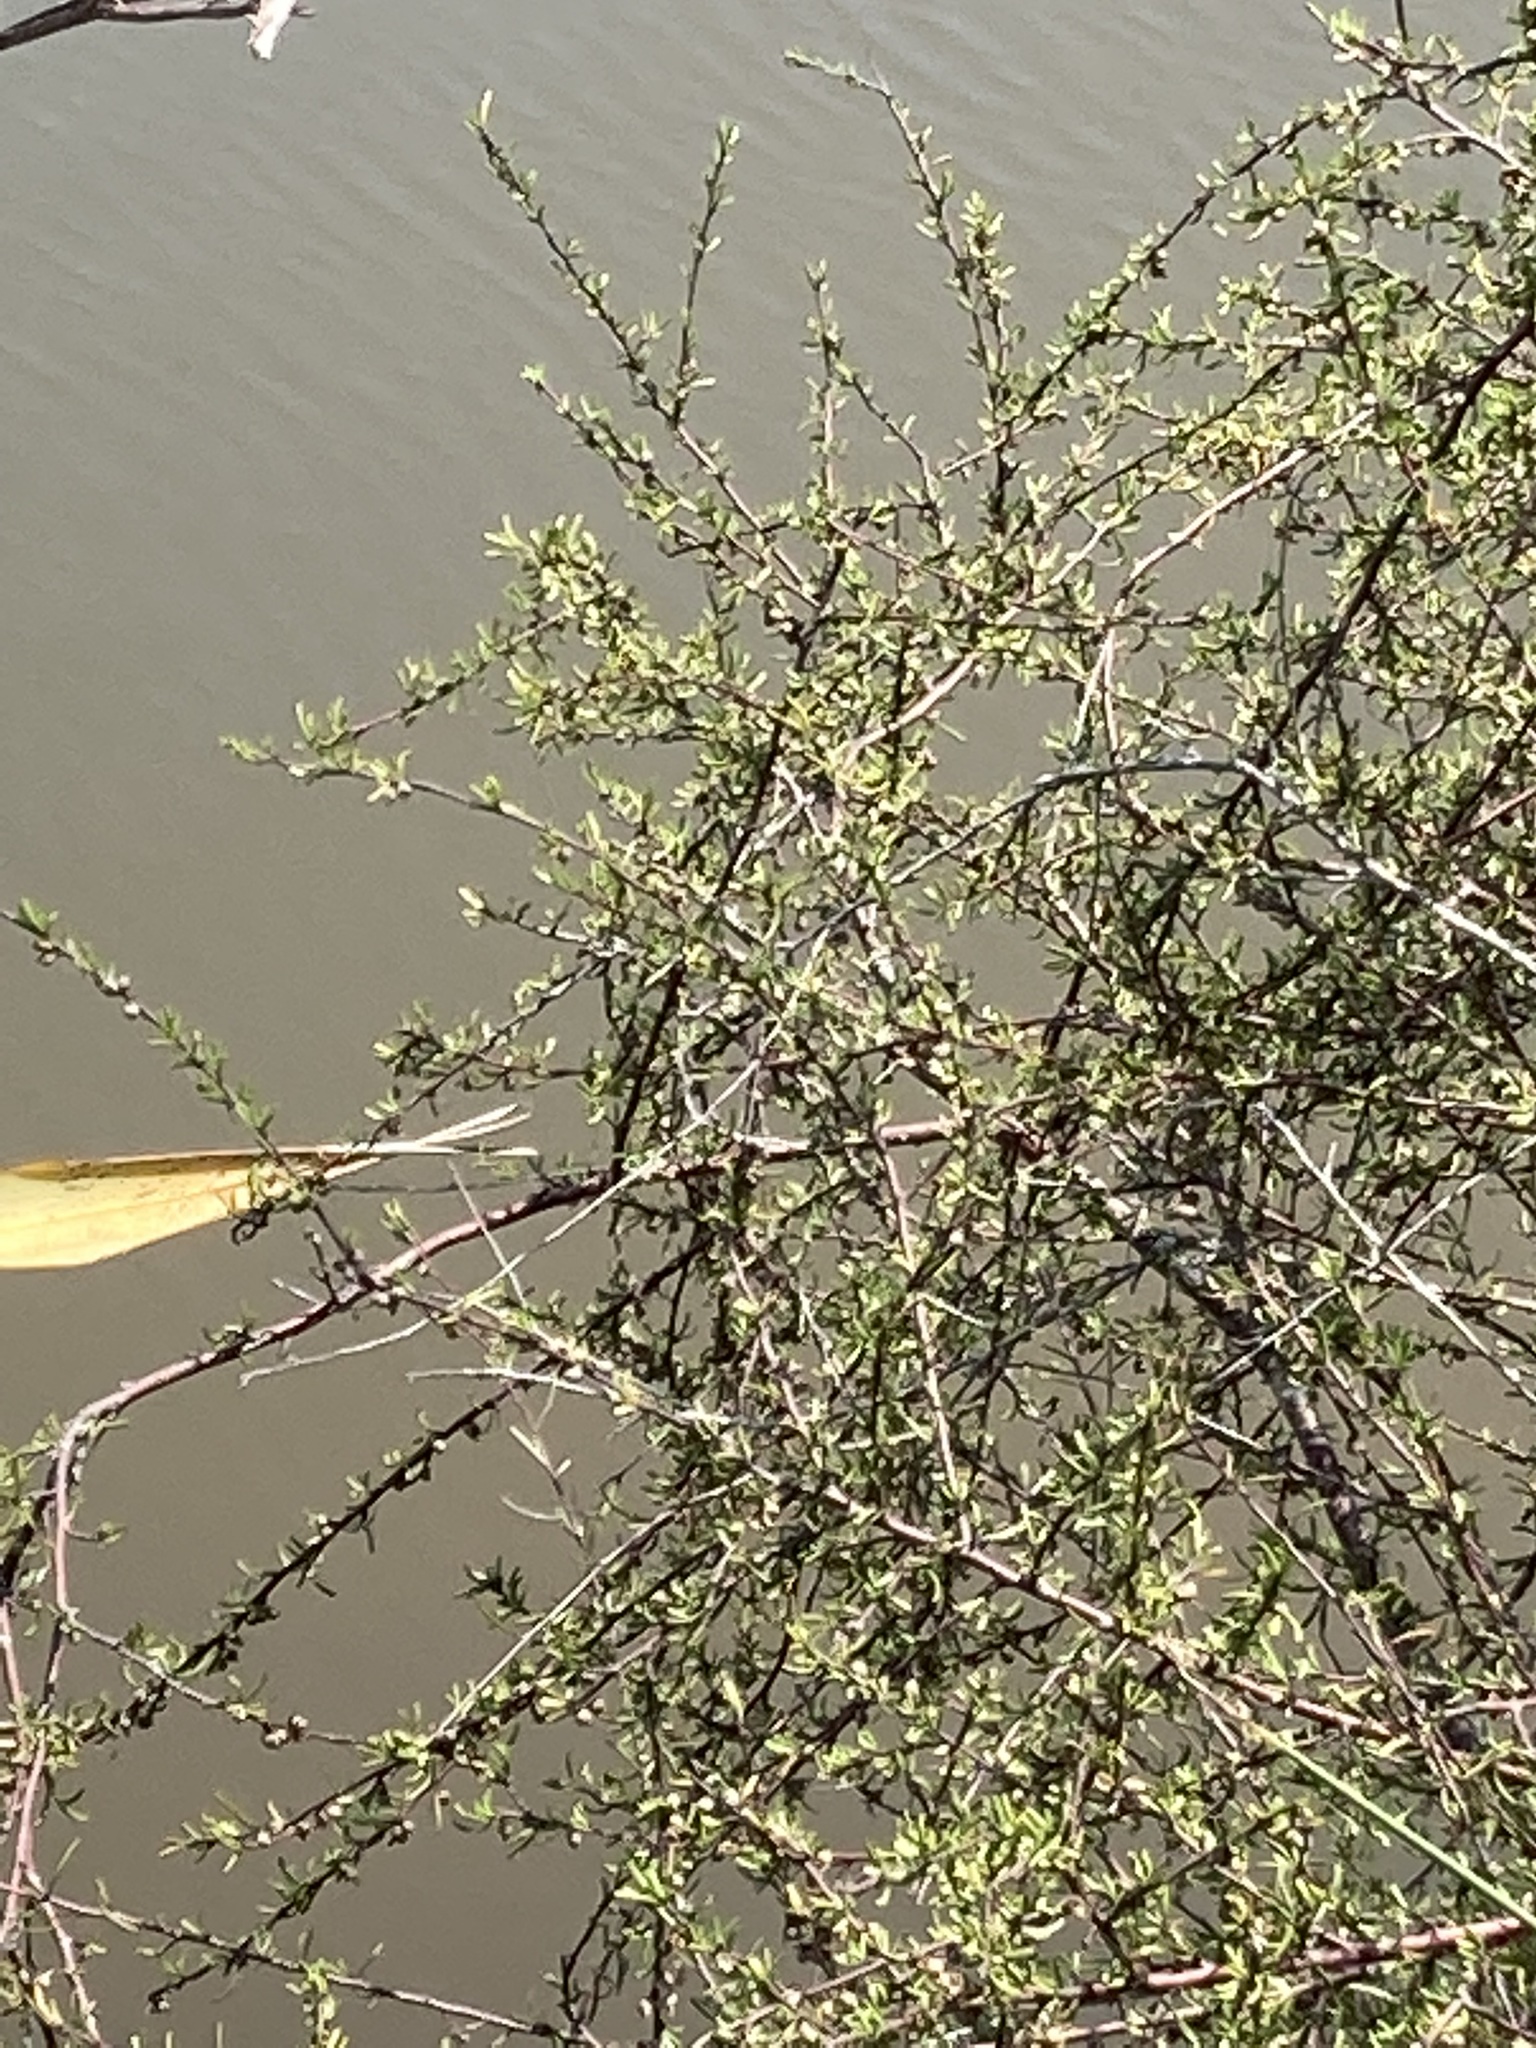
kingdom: Plantae
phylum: Tracheophyta
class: Magnoliopsida
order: Malvales
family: Malvaceae
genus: Plagianthus
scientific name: Plagianthus divaricatus
